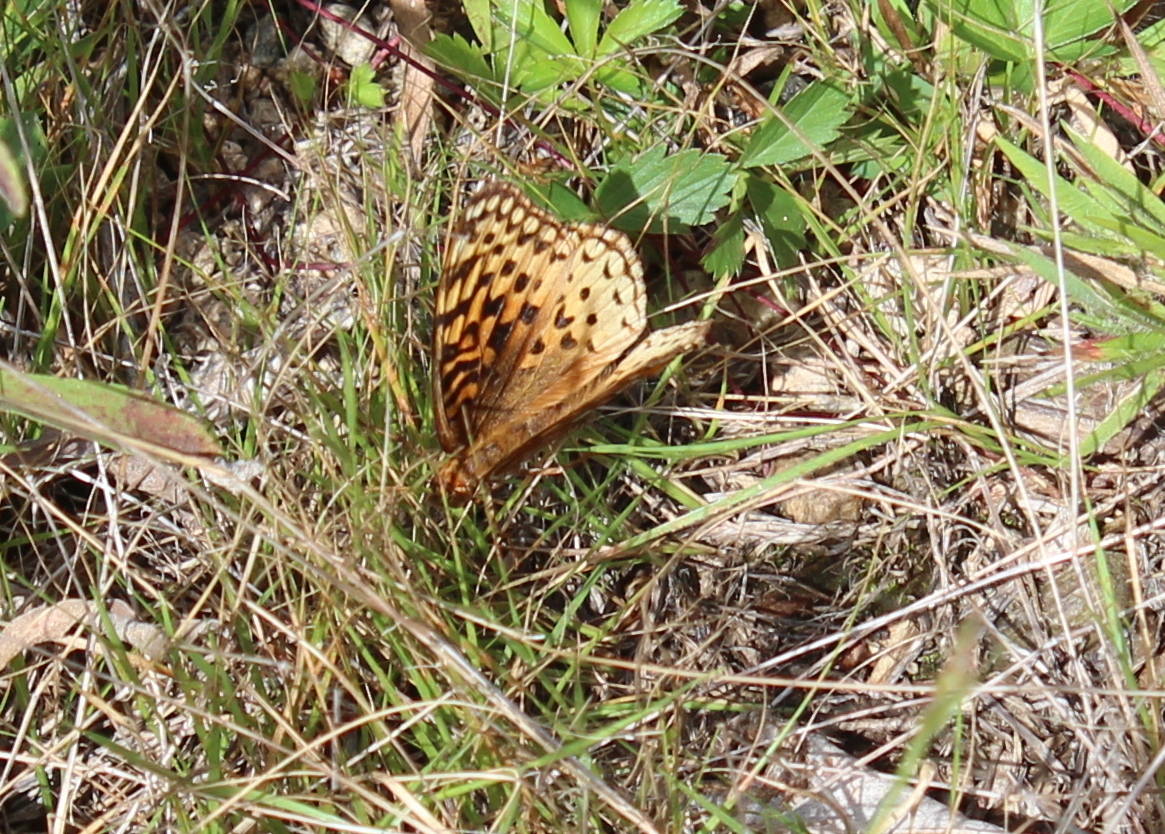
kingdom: Animalia
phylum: Arthropoda
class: Insecta
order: Lepidoptera
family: Nymphalidae
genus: Speyeria
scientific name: Speyeria aphrodite
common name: Aphrodite friitllary
